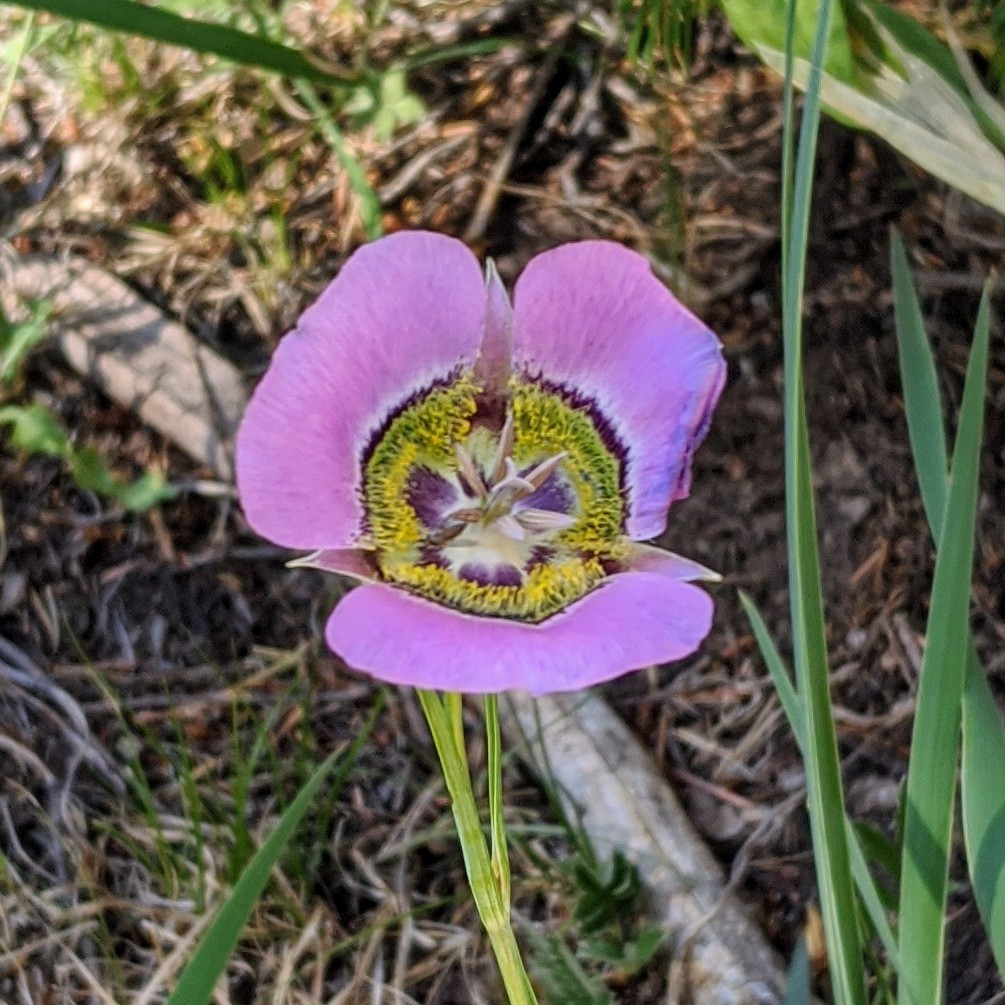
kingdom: Plantae
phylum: Tracheophyta
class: Liliopsida
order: Liliales
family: Liliaceae
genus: Calochortus
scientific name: Calochortus gunnisonii
